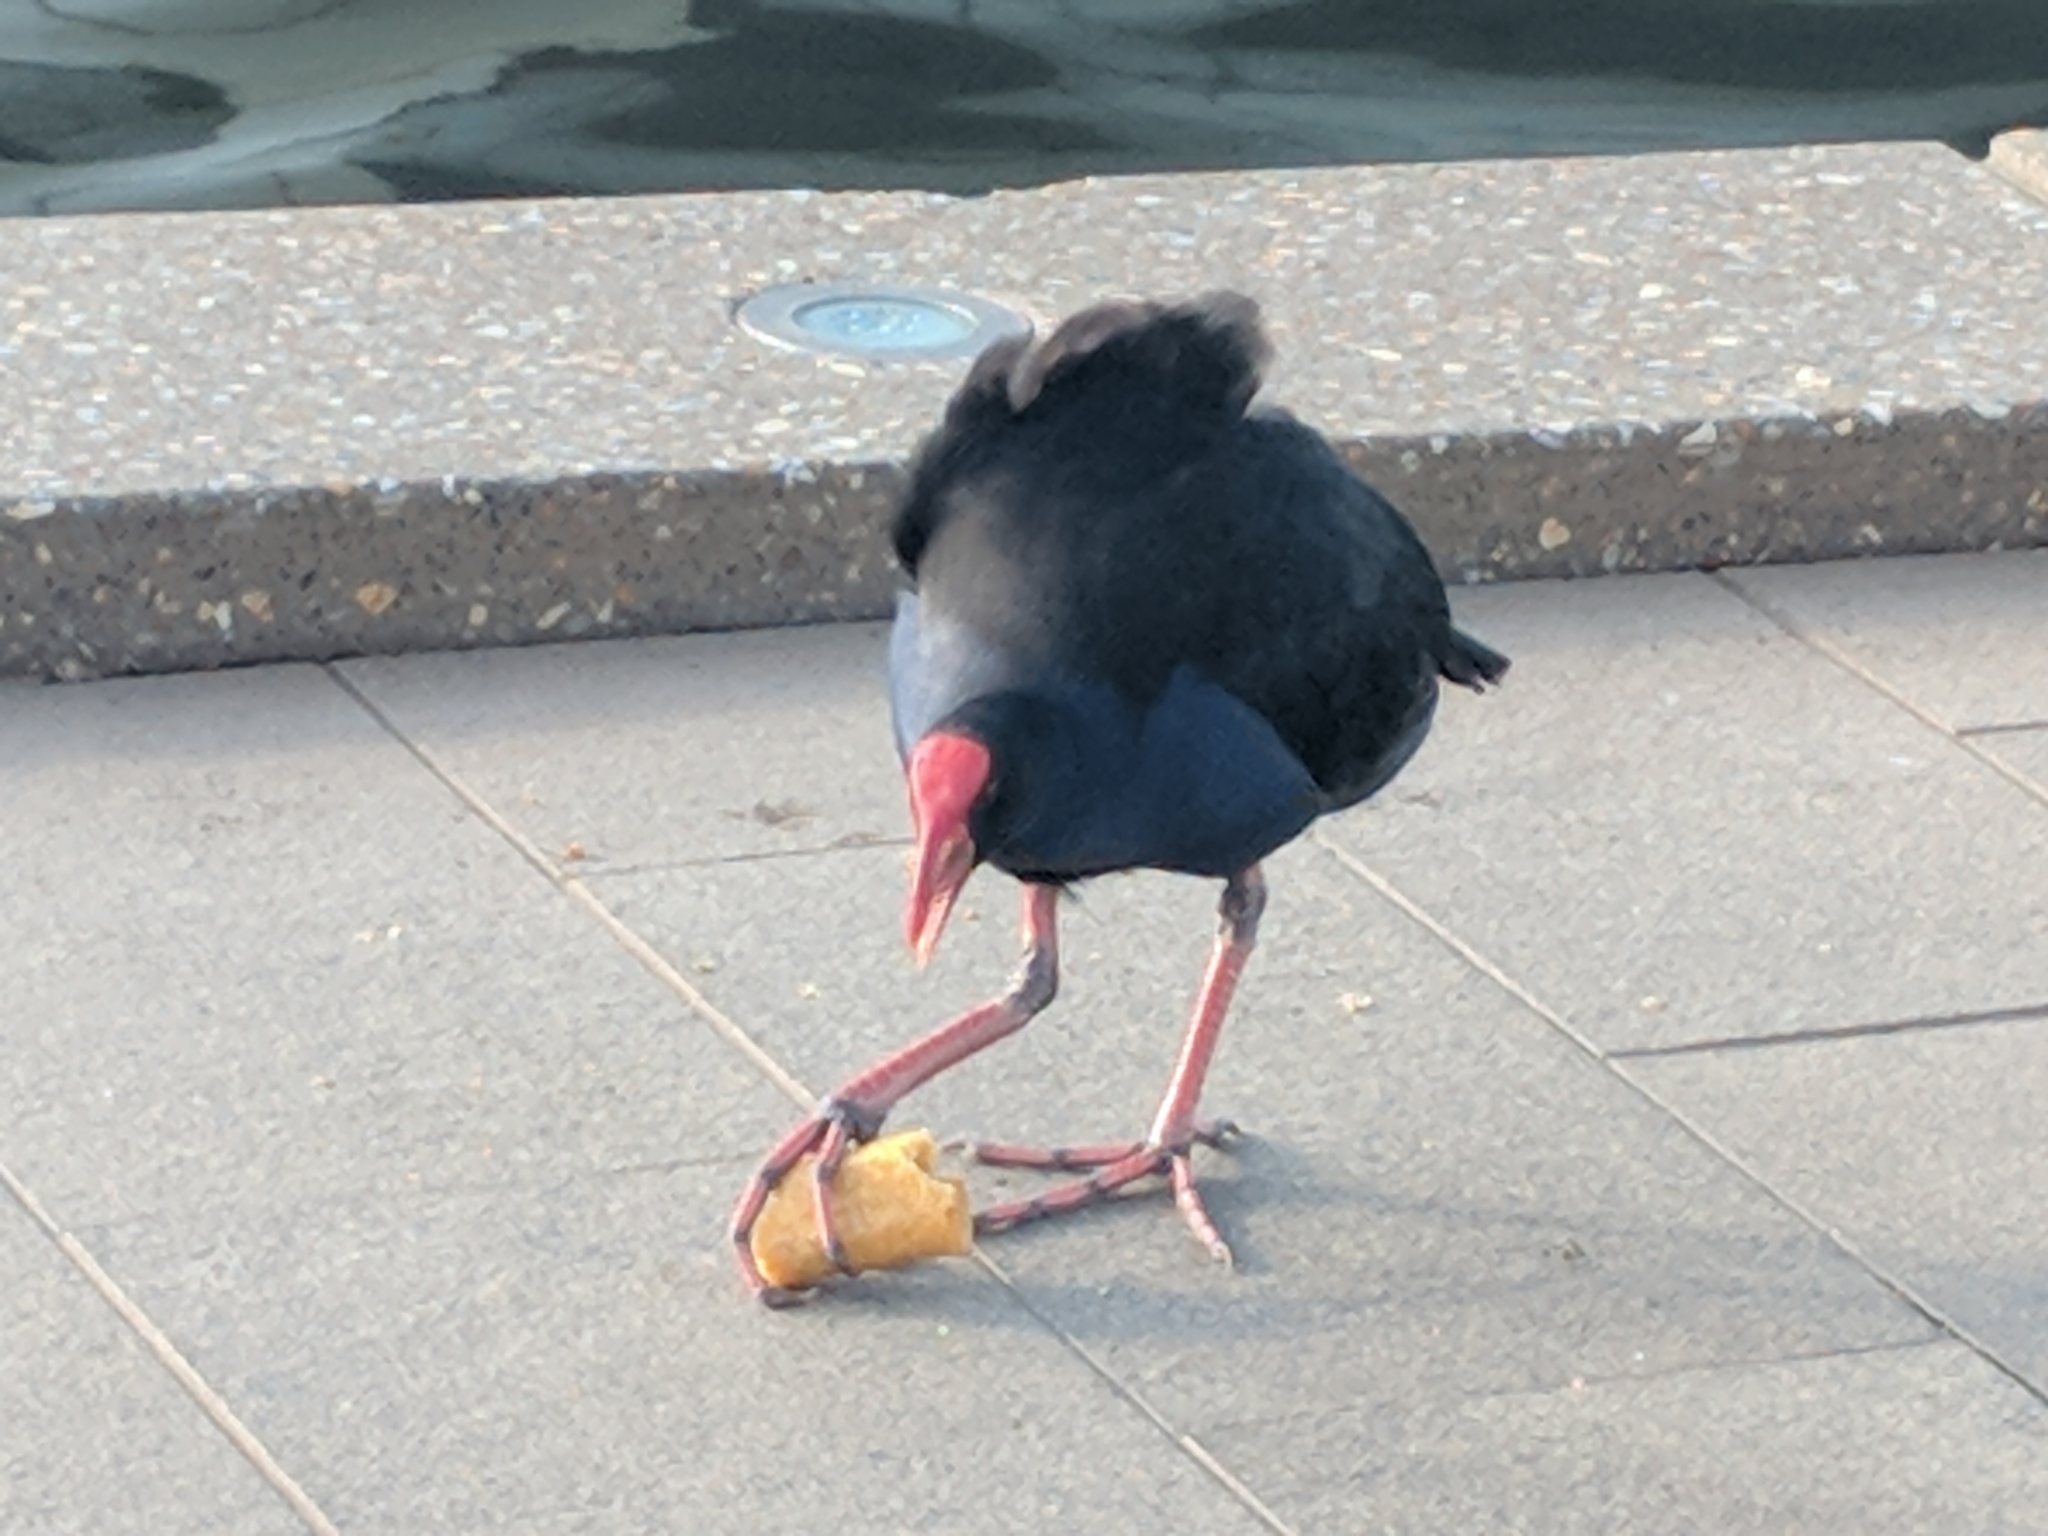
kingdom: Animalia
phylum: Chordata
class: Aves
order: Gruiformes
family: Rallidae
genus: Porphyrio
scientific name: Porphyrio melanotus
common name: Australasian swamphen
